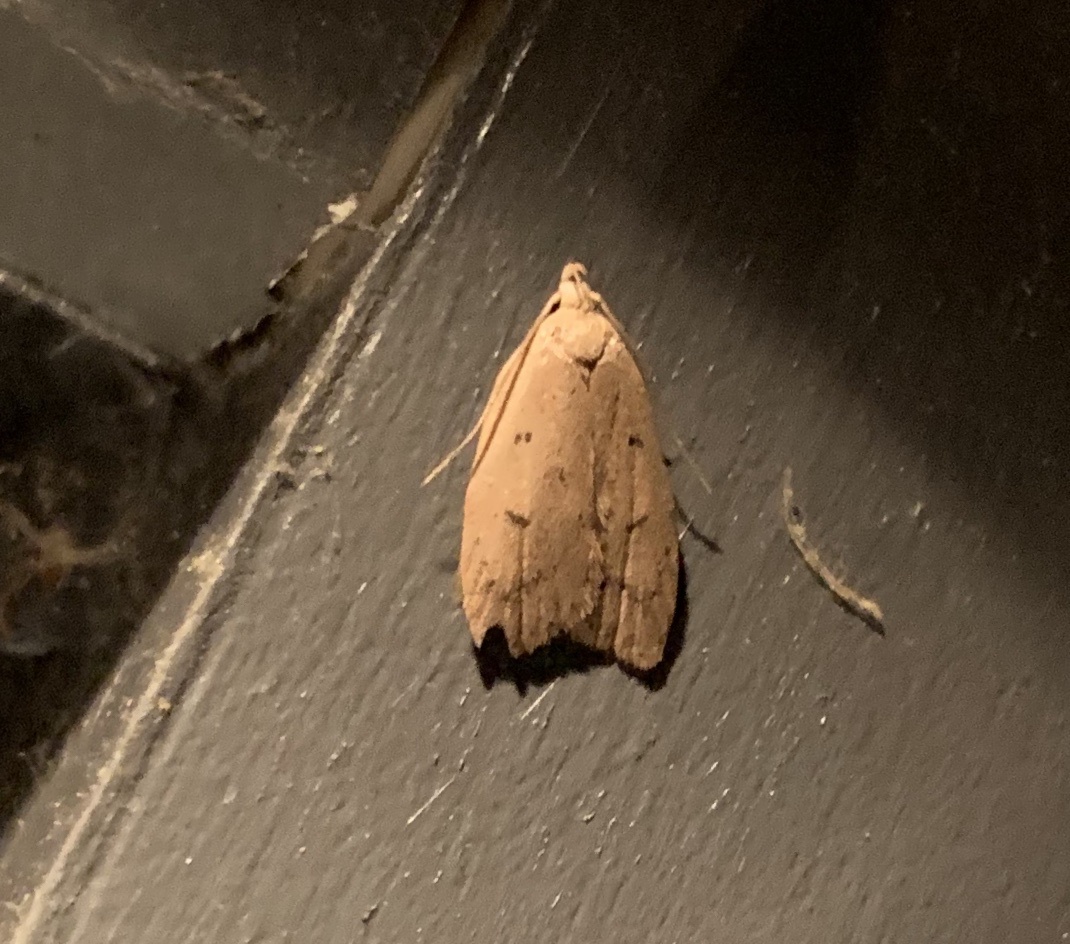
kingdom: Animalia
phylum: Arthropoda
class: Insecta
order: Lepidoptera
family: Peleopodidae
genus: Machimia
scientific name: Machimia tentoriferella
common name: Gold-striped leaftier moth
